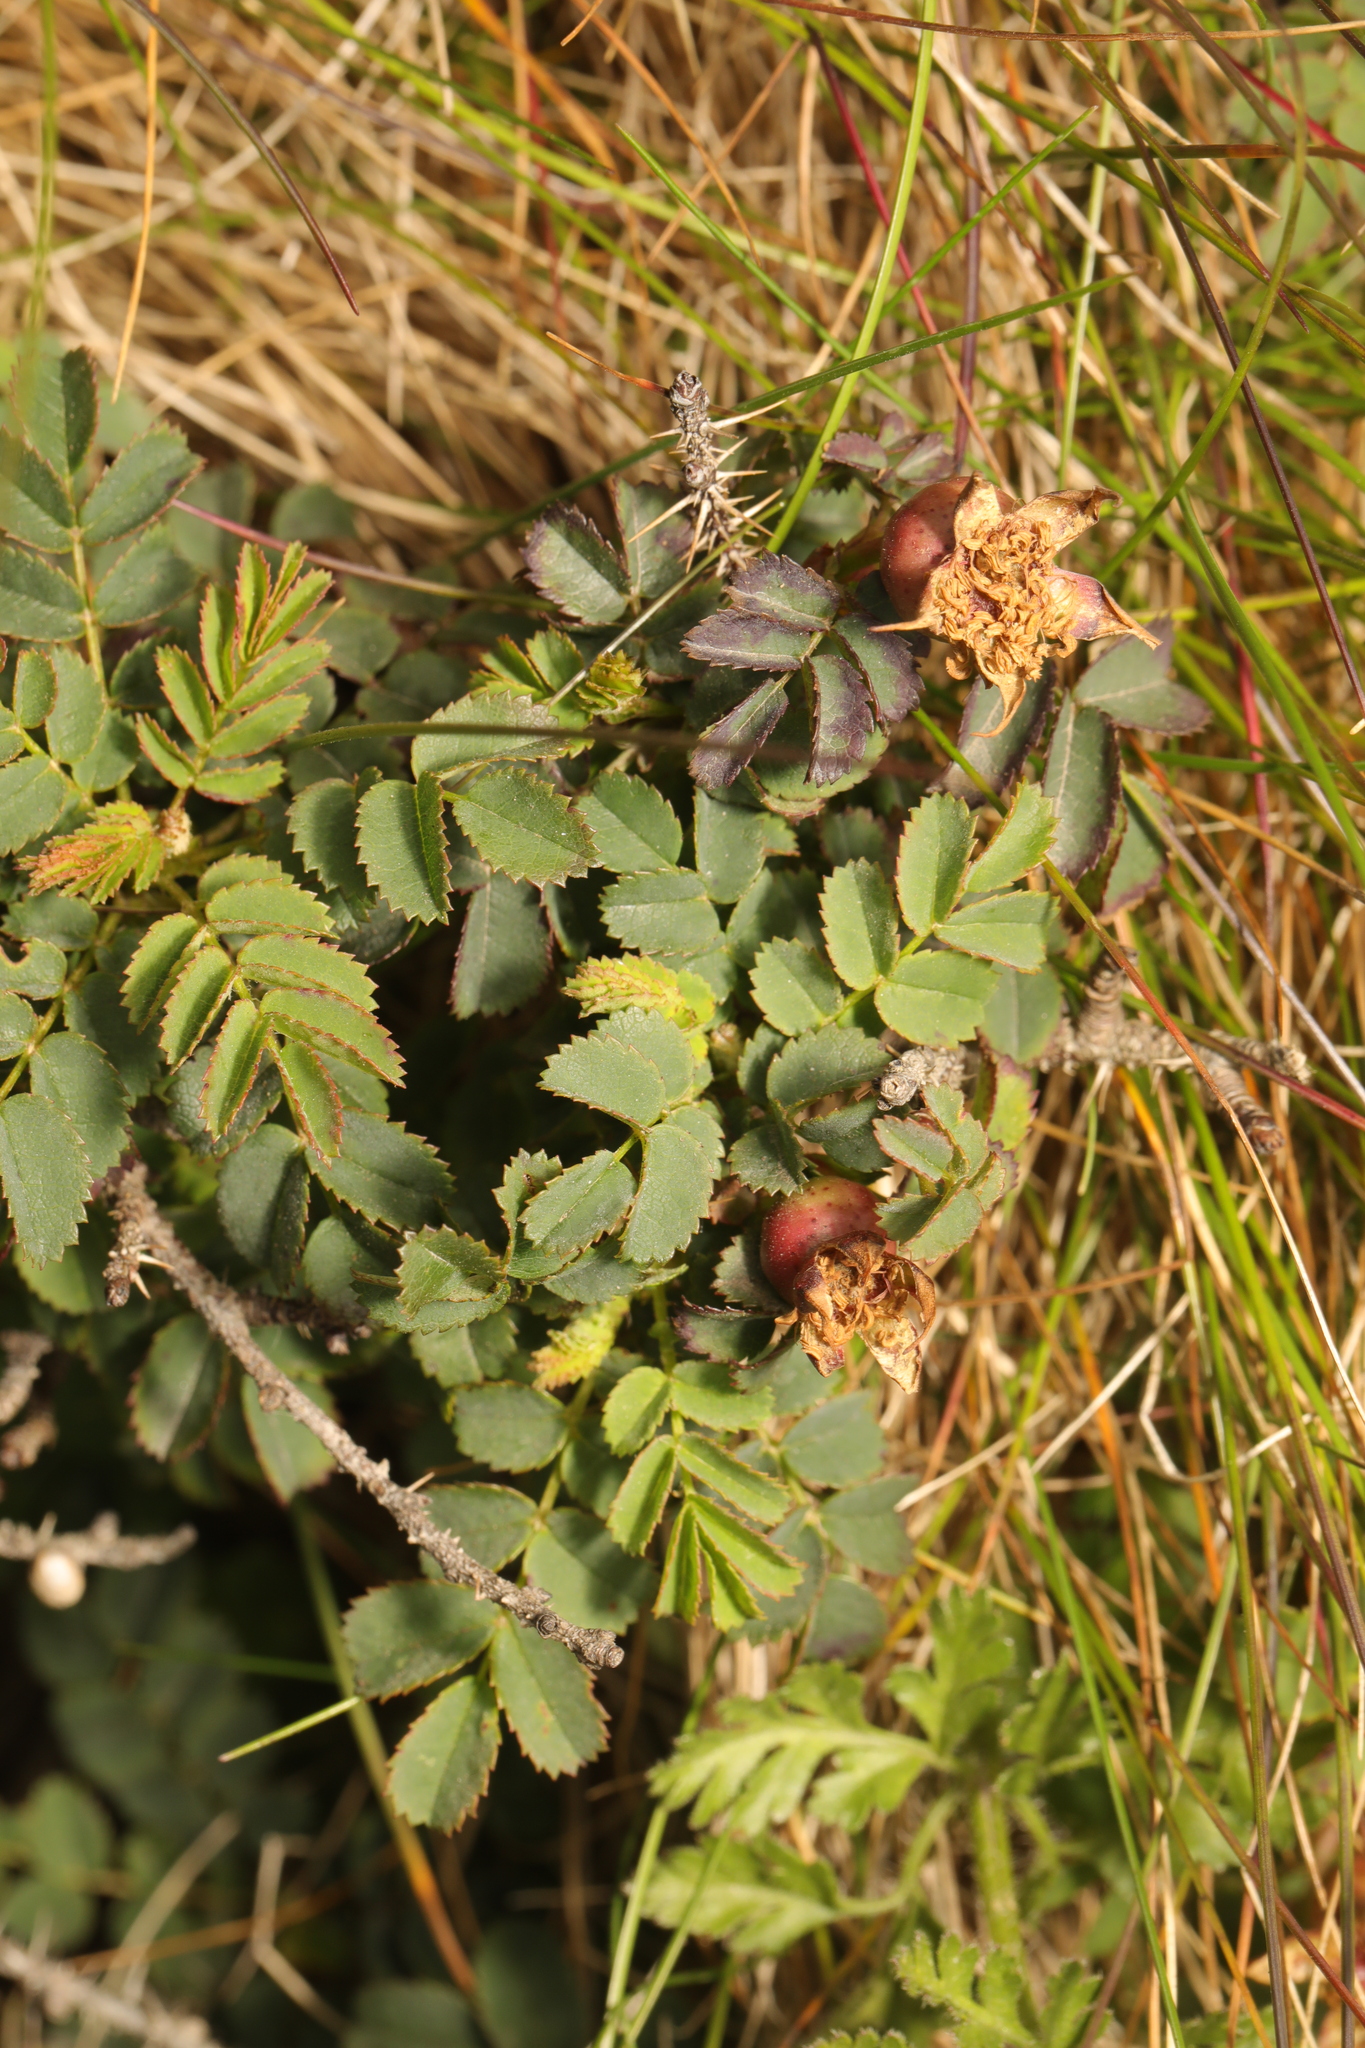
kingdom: Plantae
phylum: Tracheophyta
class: Magnoliopsida
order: Rosales
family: Rosaceae
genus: Rosa
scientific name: Rosa spinosissima
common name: Burnet rose
